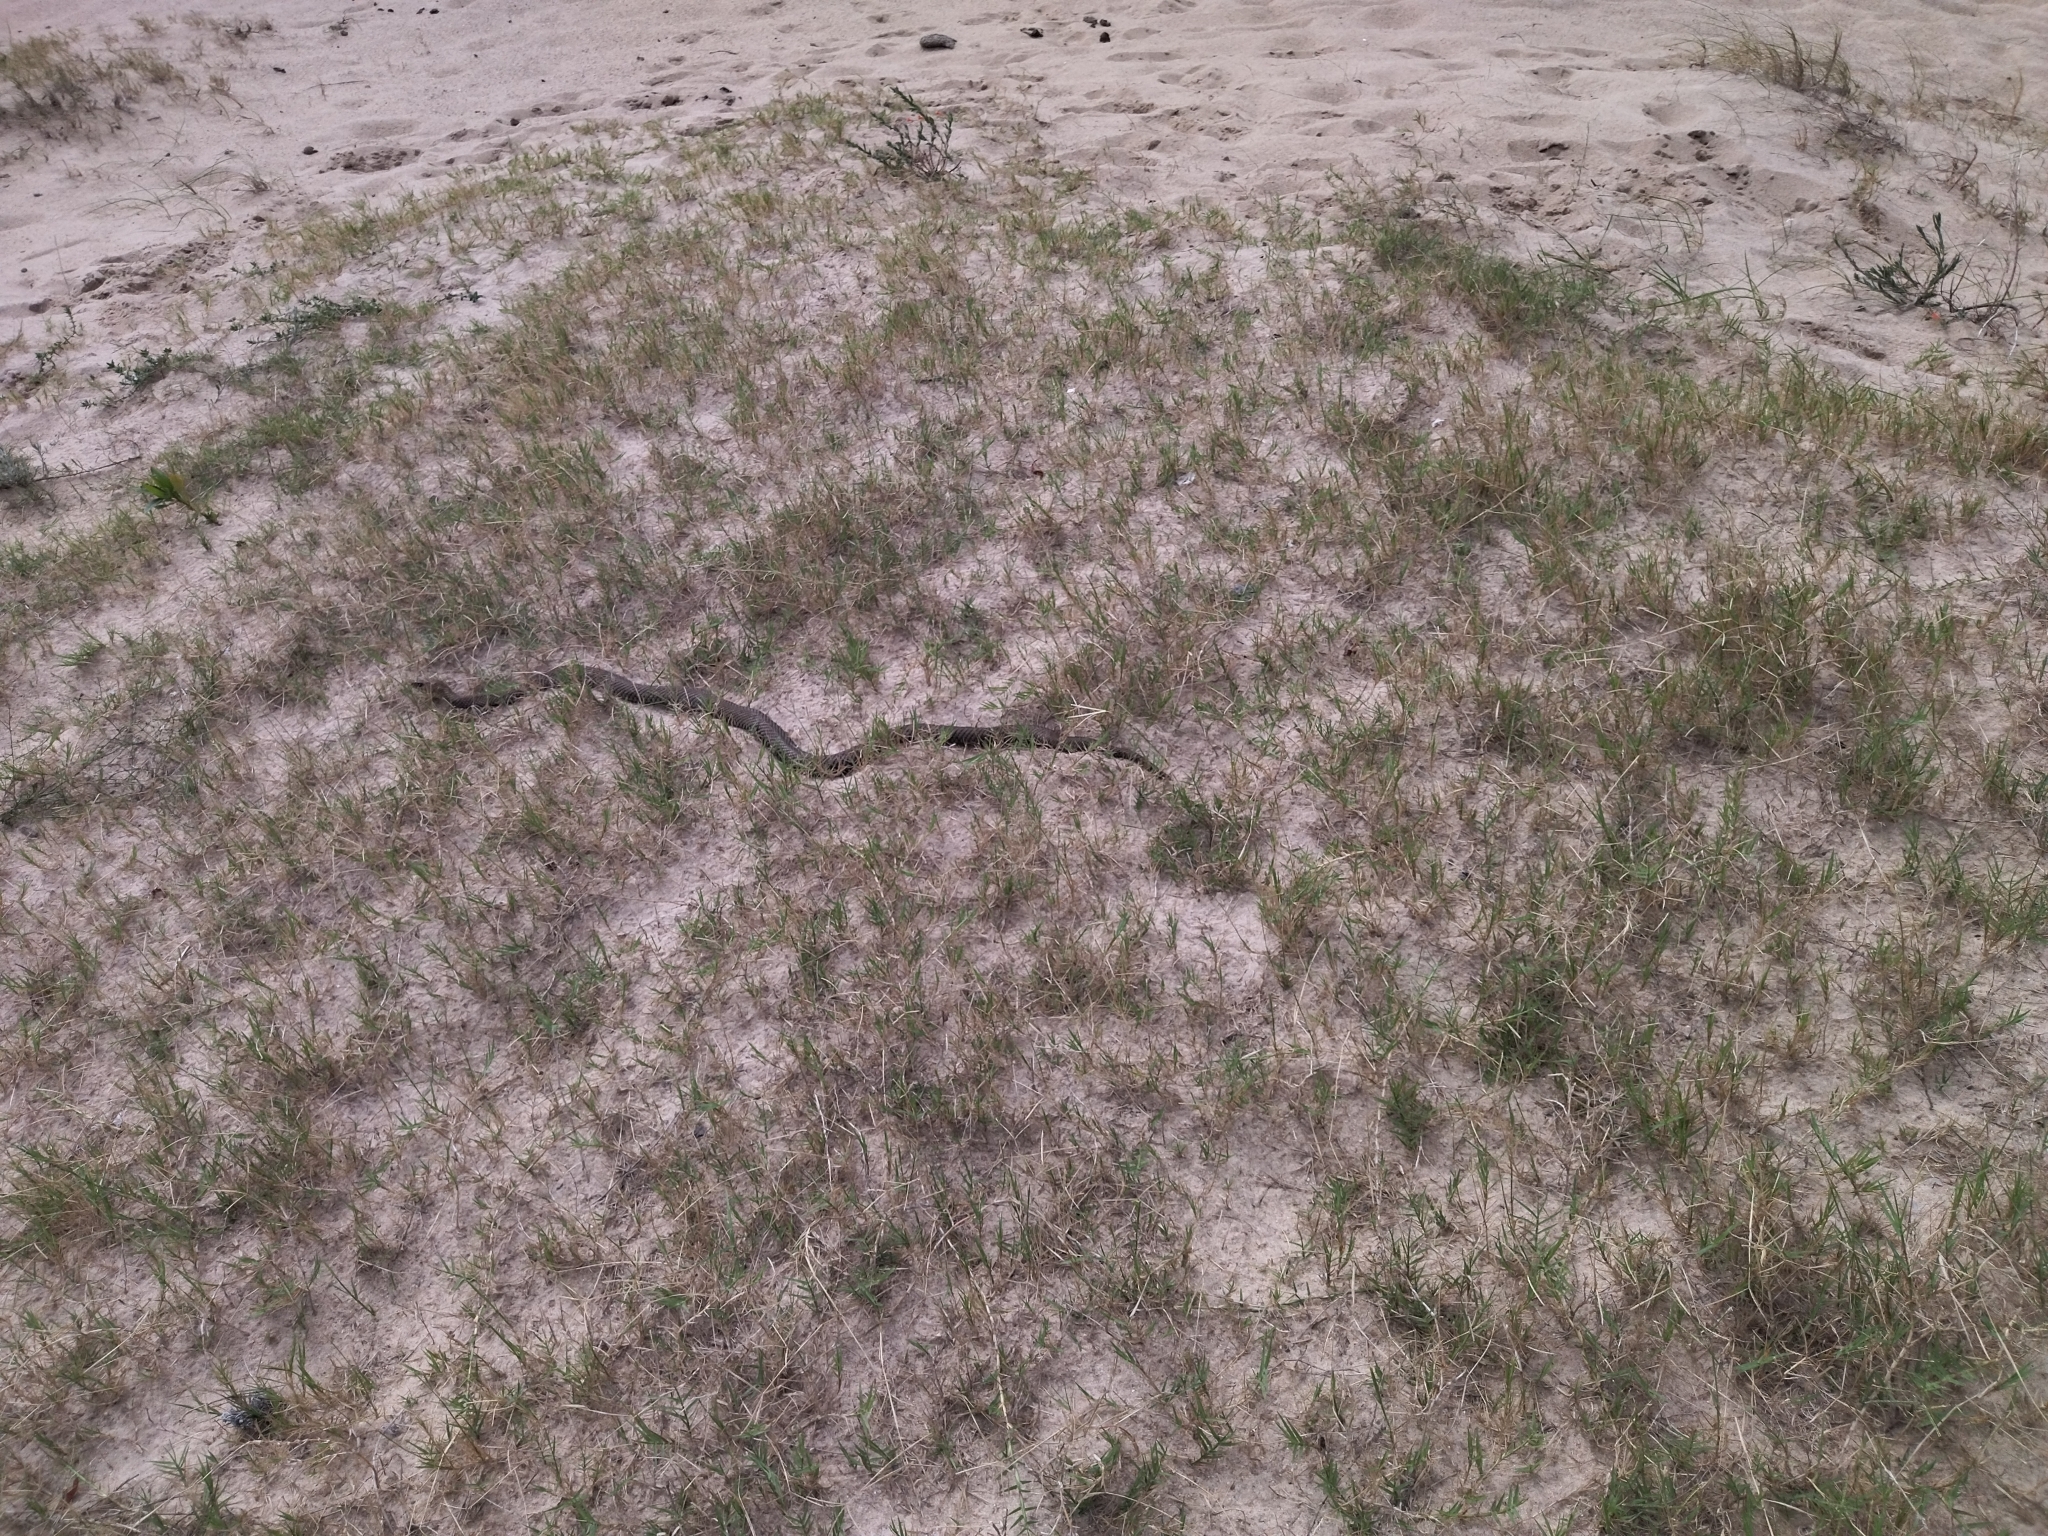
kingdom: Animalia
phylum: Chordata
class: Squamata
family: Colubridae
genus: Philodryas
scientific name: Philodryas patagoniensis
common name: Patagonia green racer
